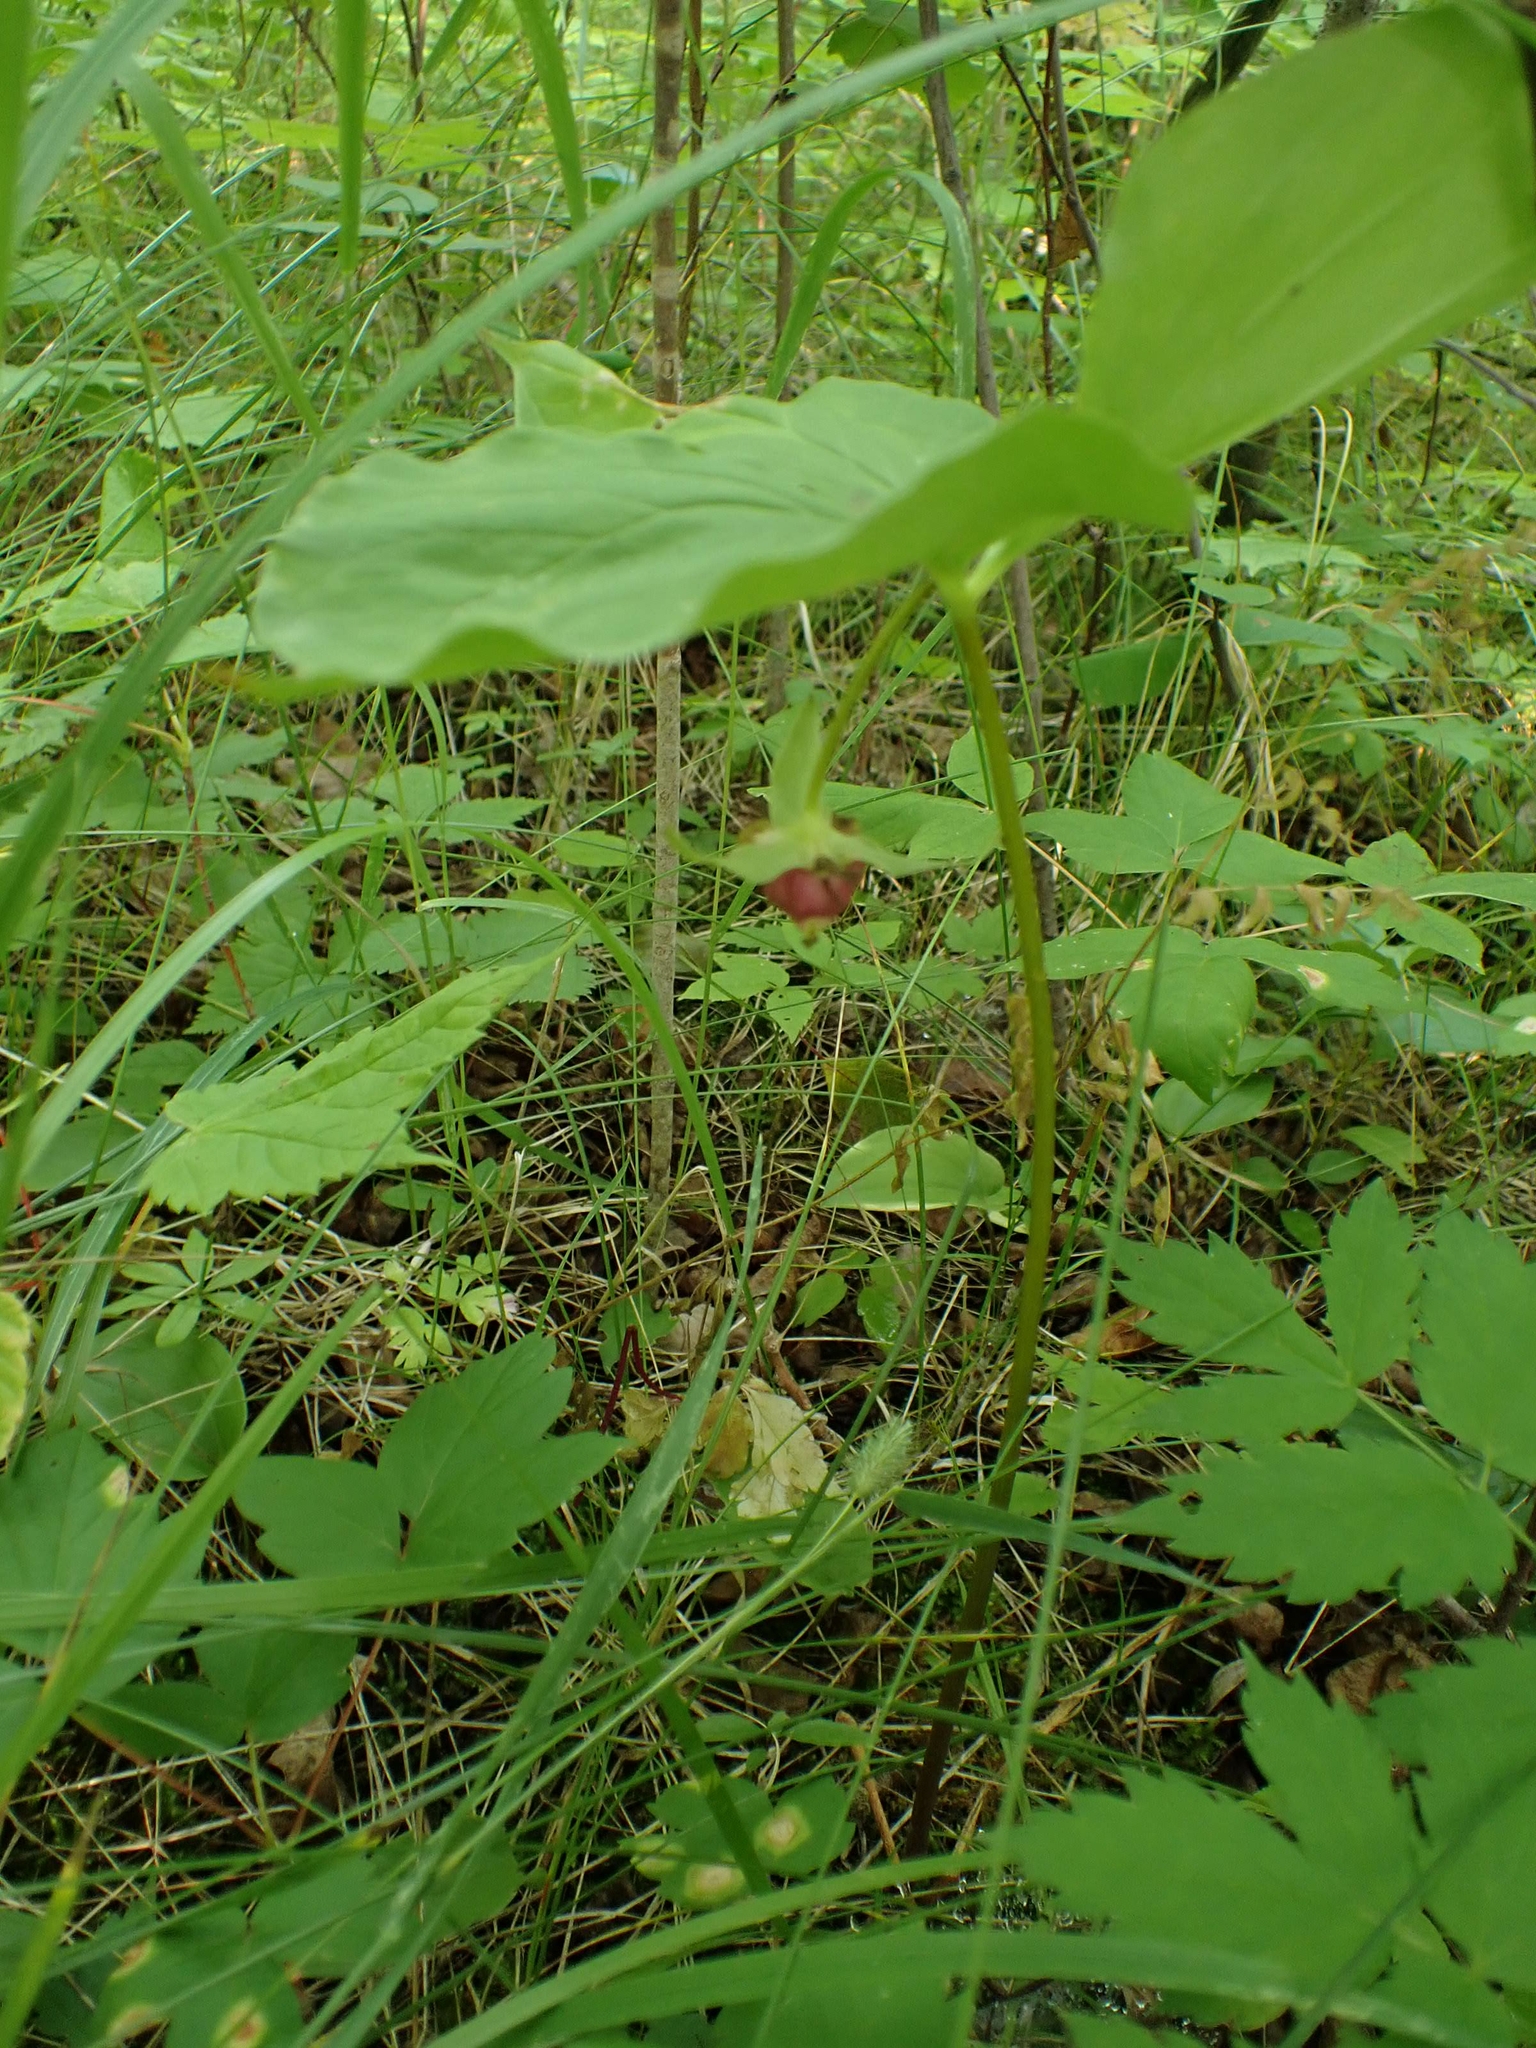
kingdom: Plantae
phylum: Tracheophyta
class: Liliopsida
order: Liliales
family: Melanthiaceae
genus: Trillium
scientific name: Trillium cernuum
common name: Nodding trillium
